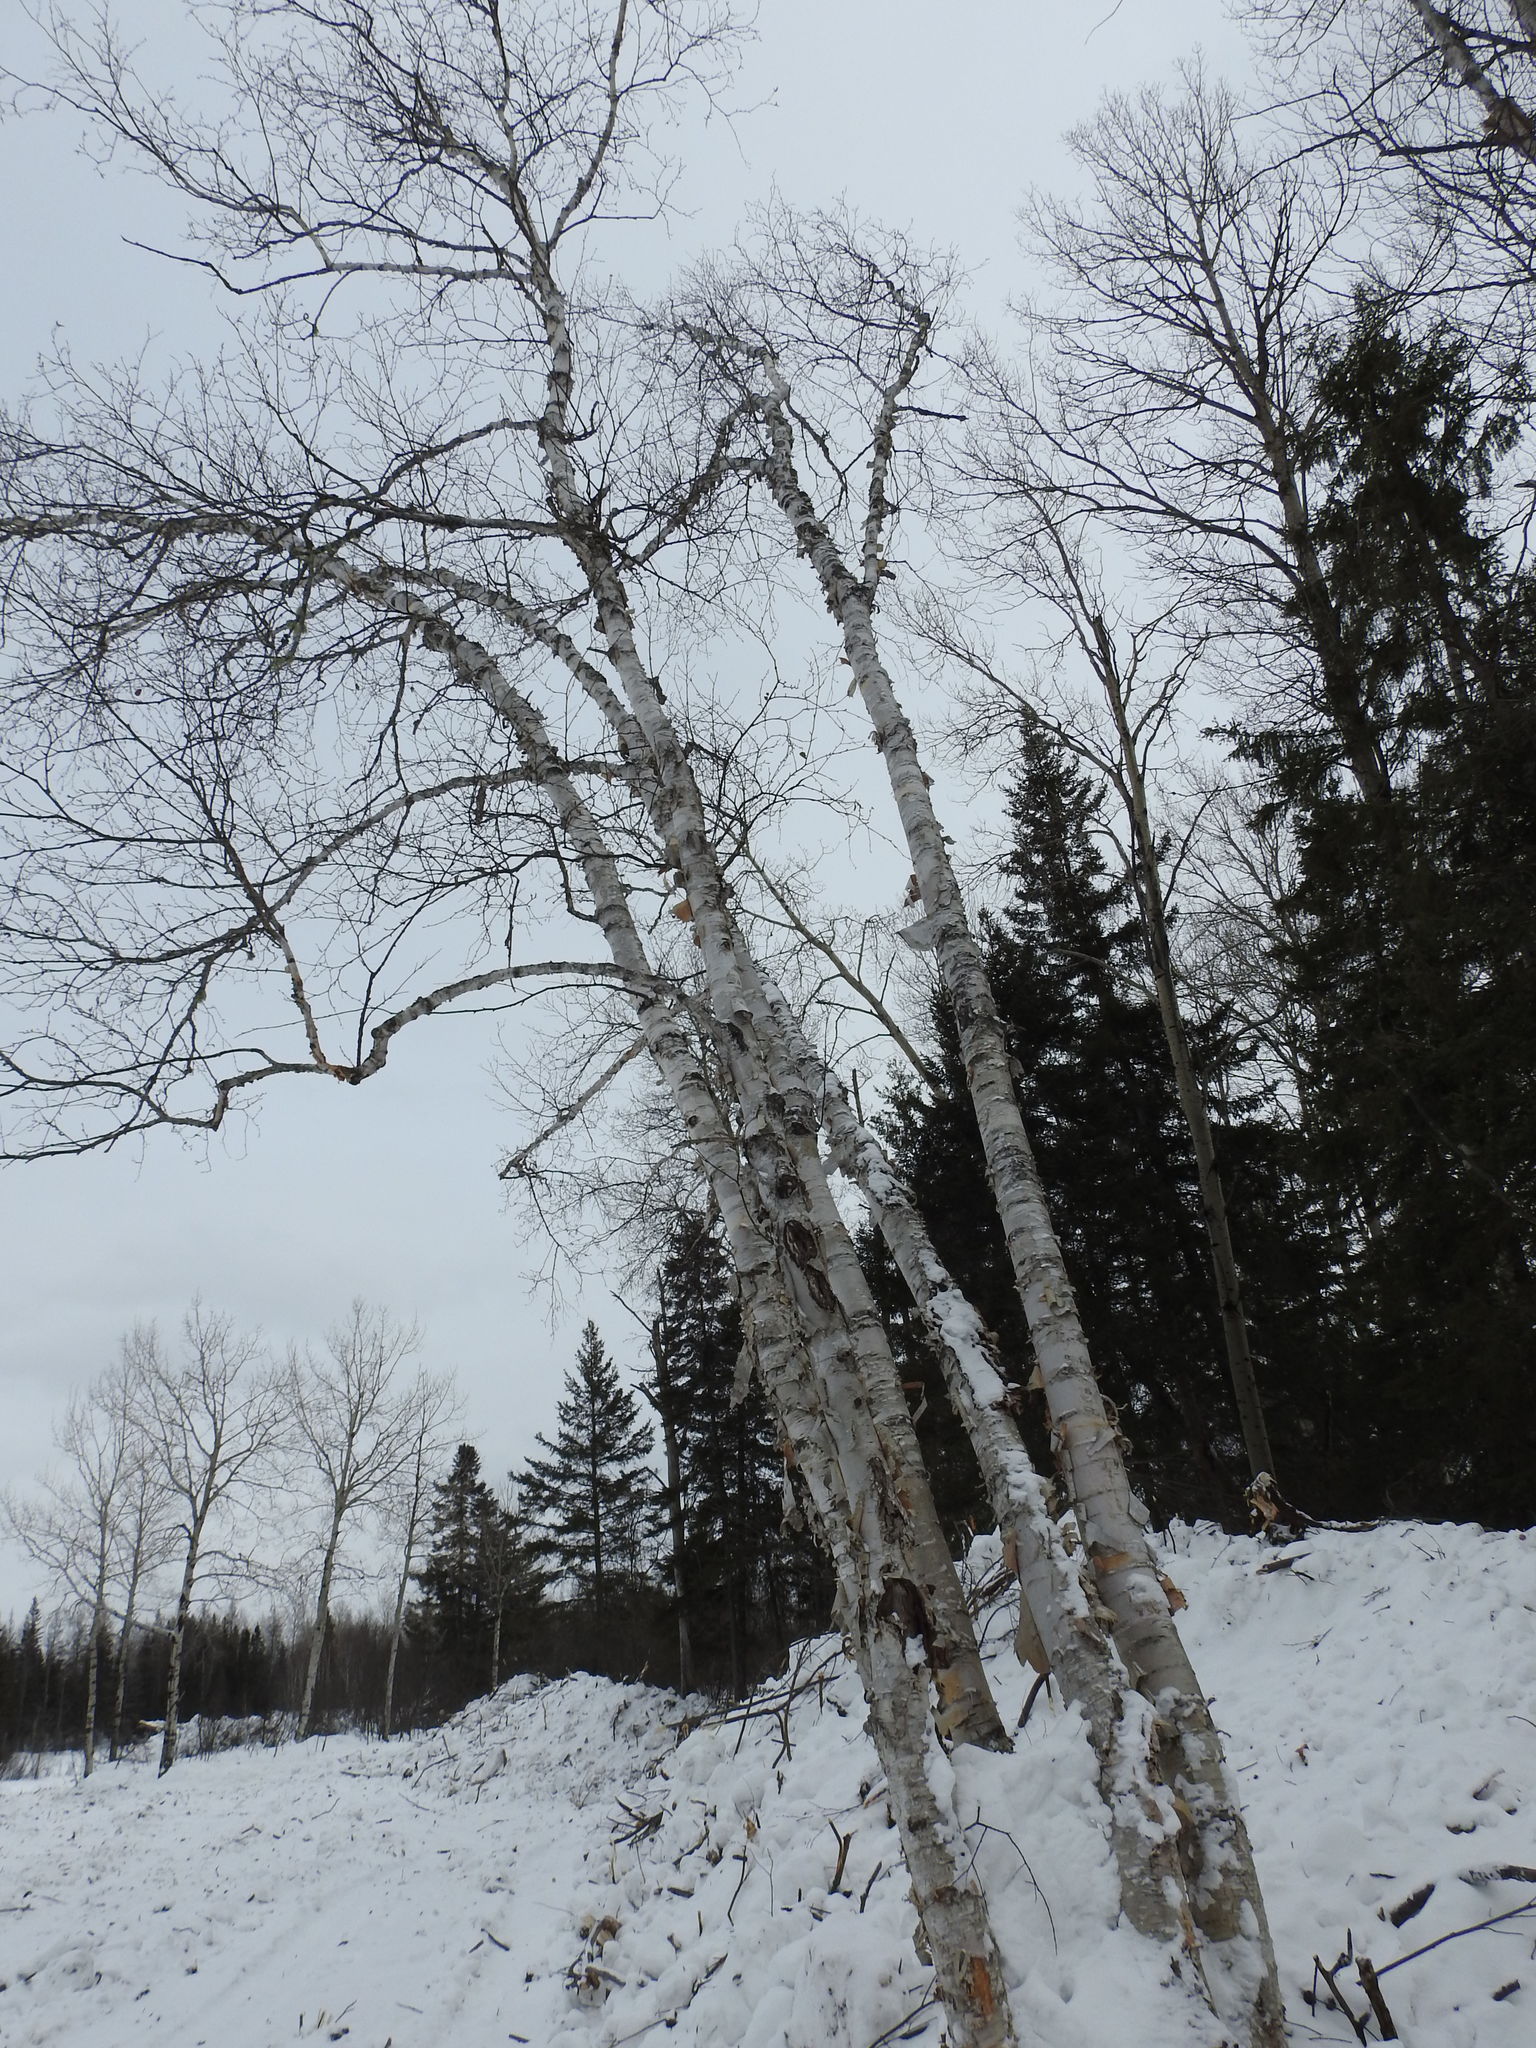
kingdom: Plantae
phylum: Tracheophyta
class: Magnoliopsida
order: Fagales
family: Betulaceae
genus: Betula
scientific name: Betula papyrifera
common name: Paper birch
